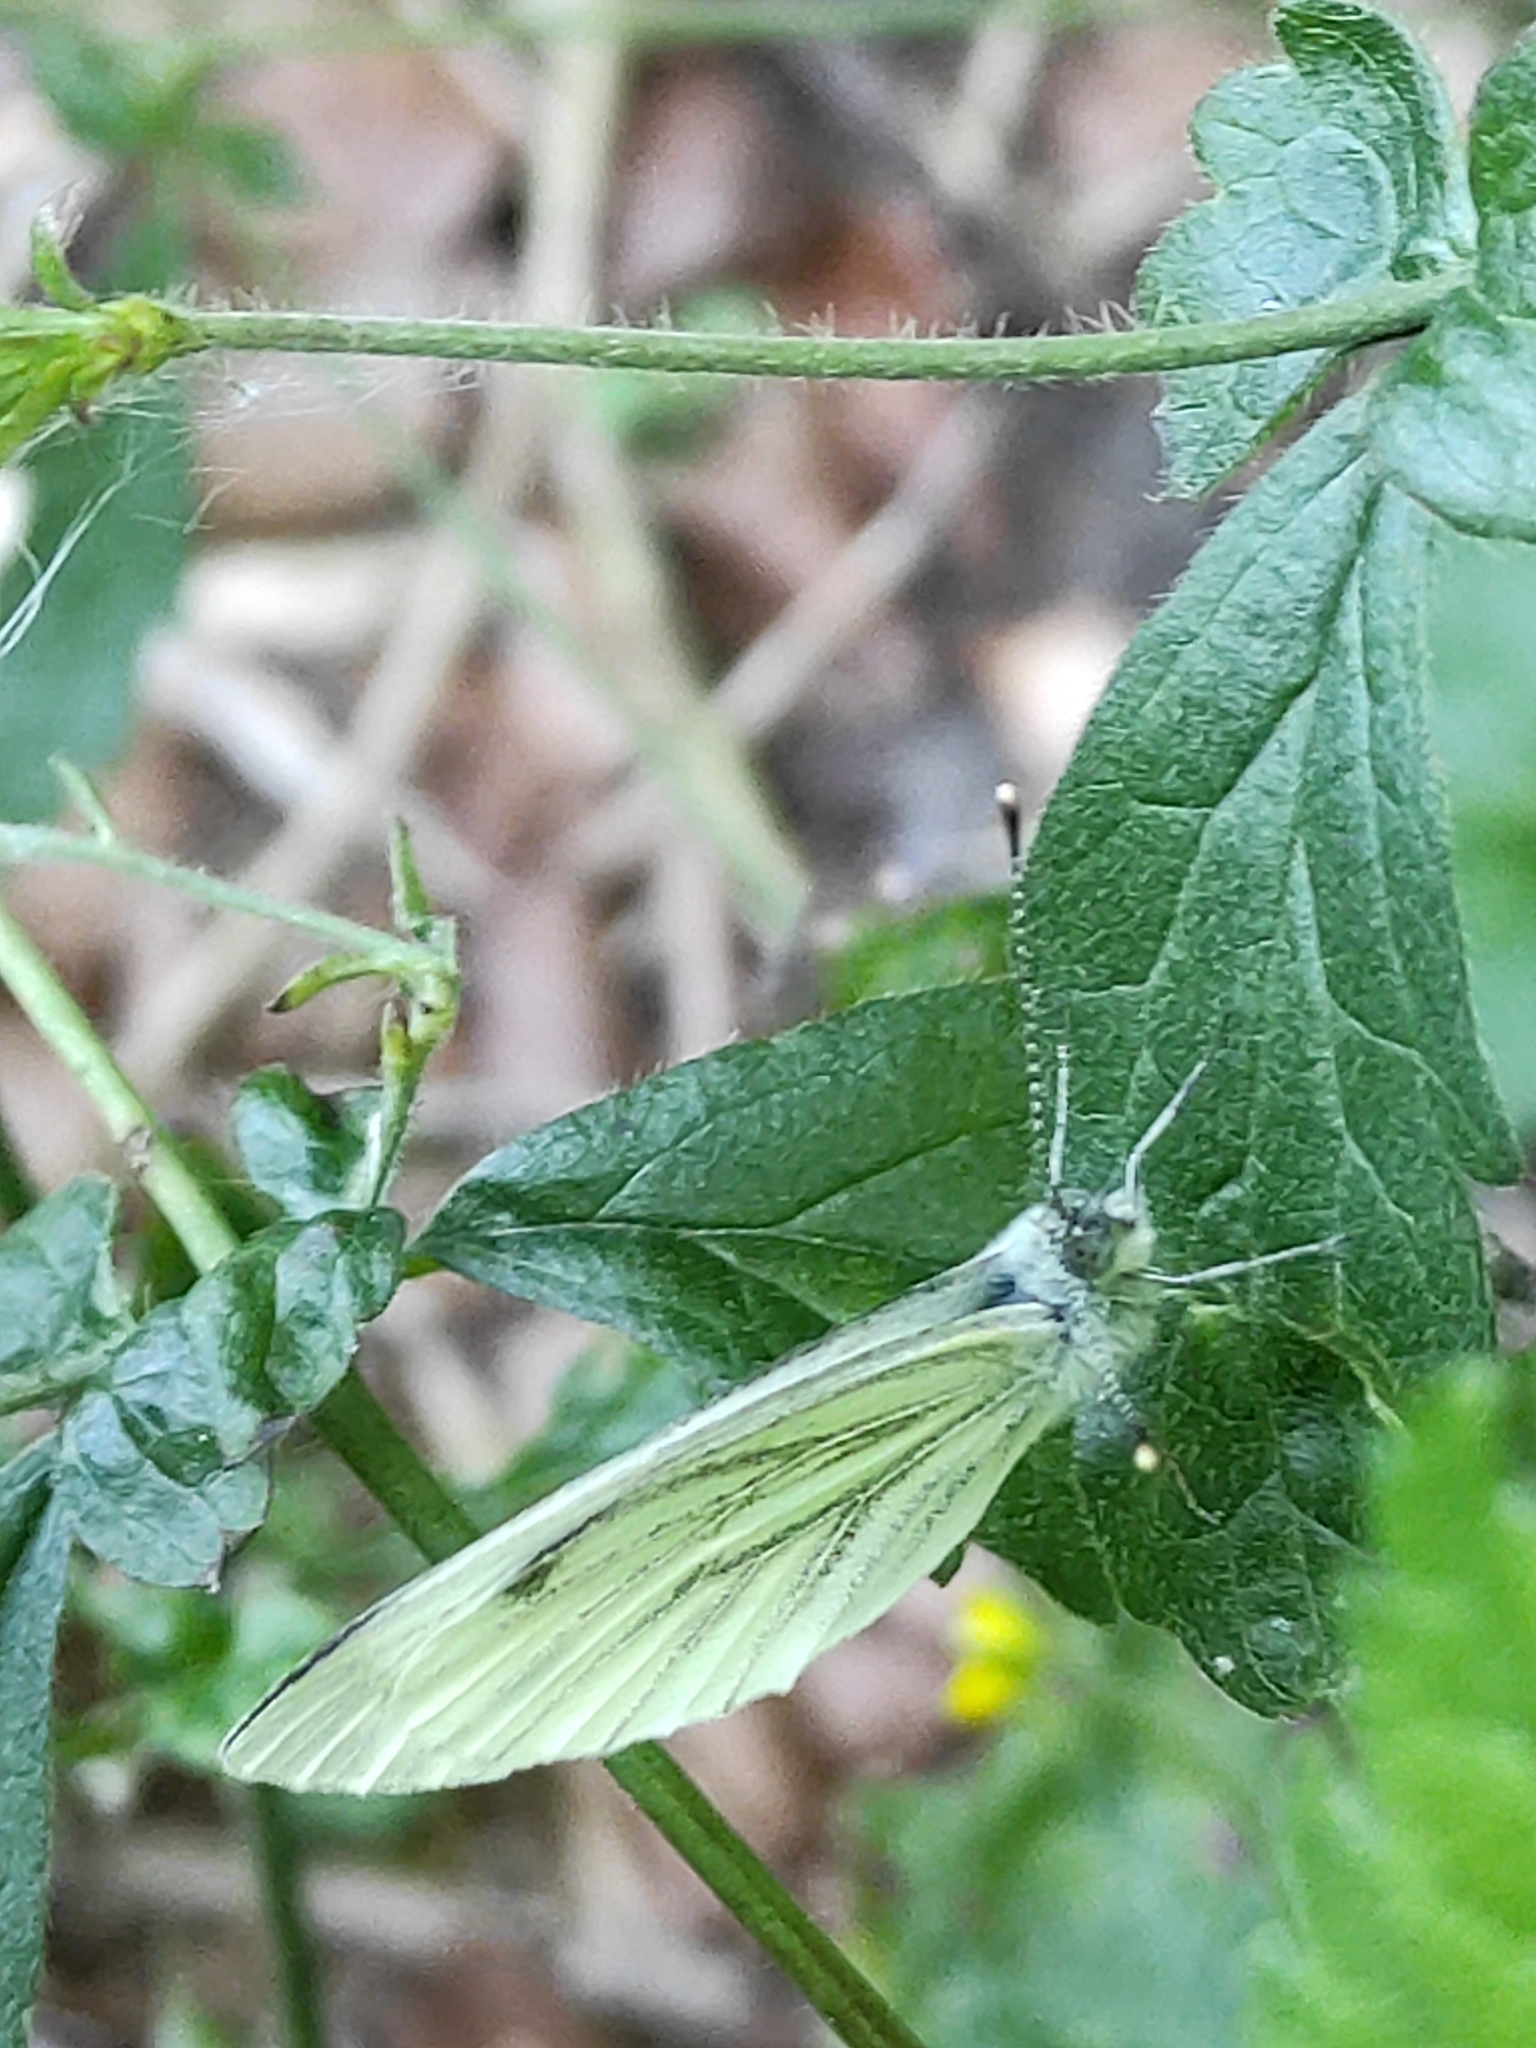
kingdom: Animalia
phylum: Arthropoda
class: Insecta
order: Lepidoptera
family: Pieridae
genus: Pieris
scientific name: Pieris napi
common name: Green-veined white
